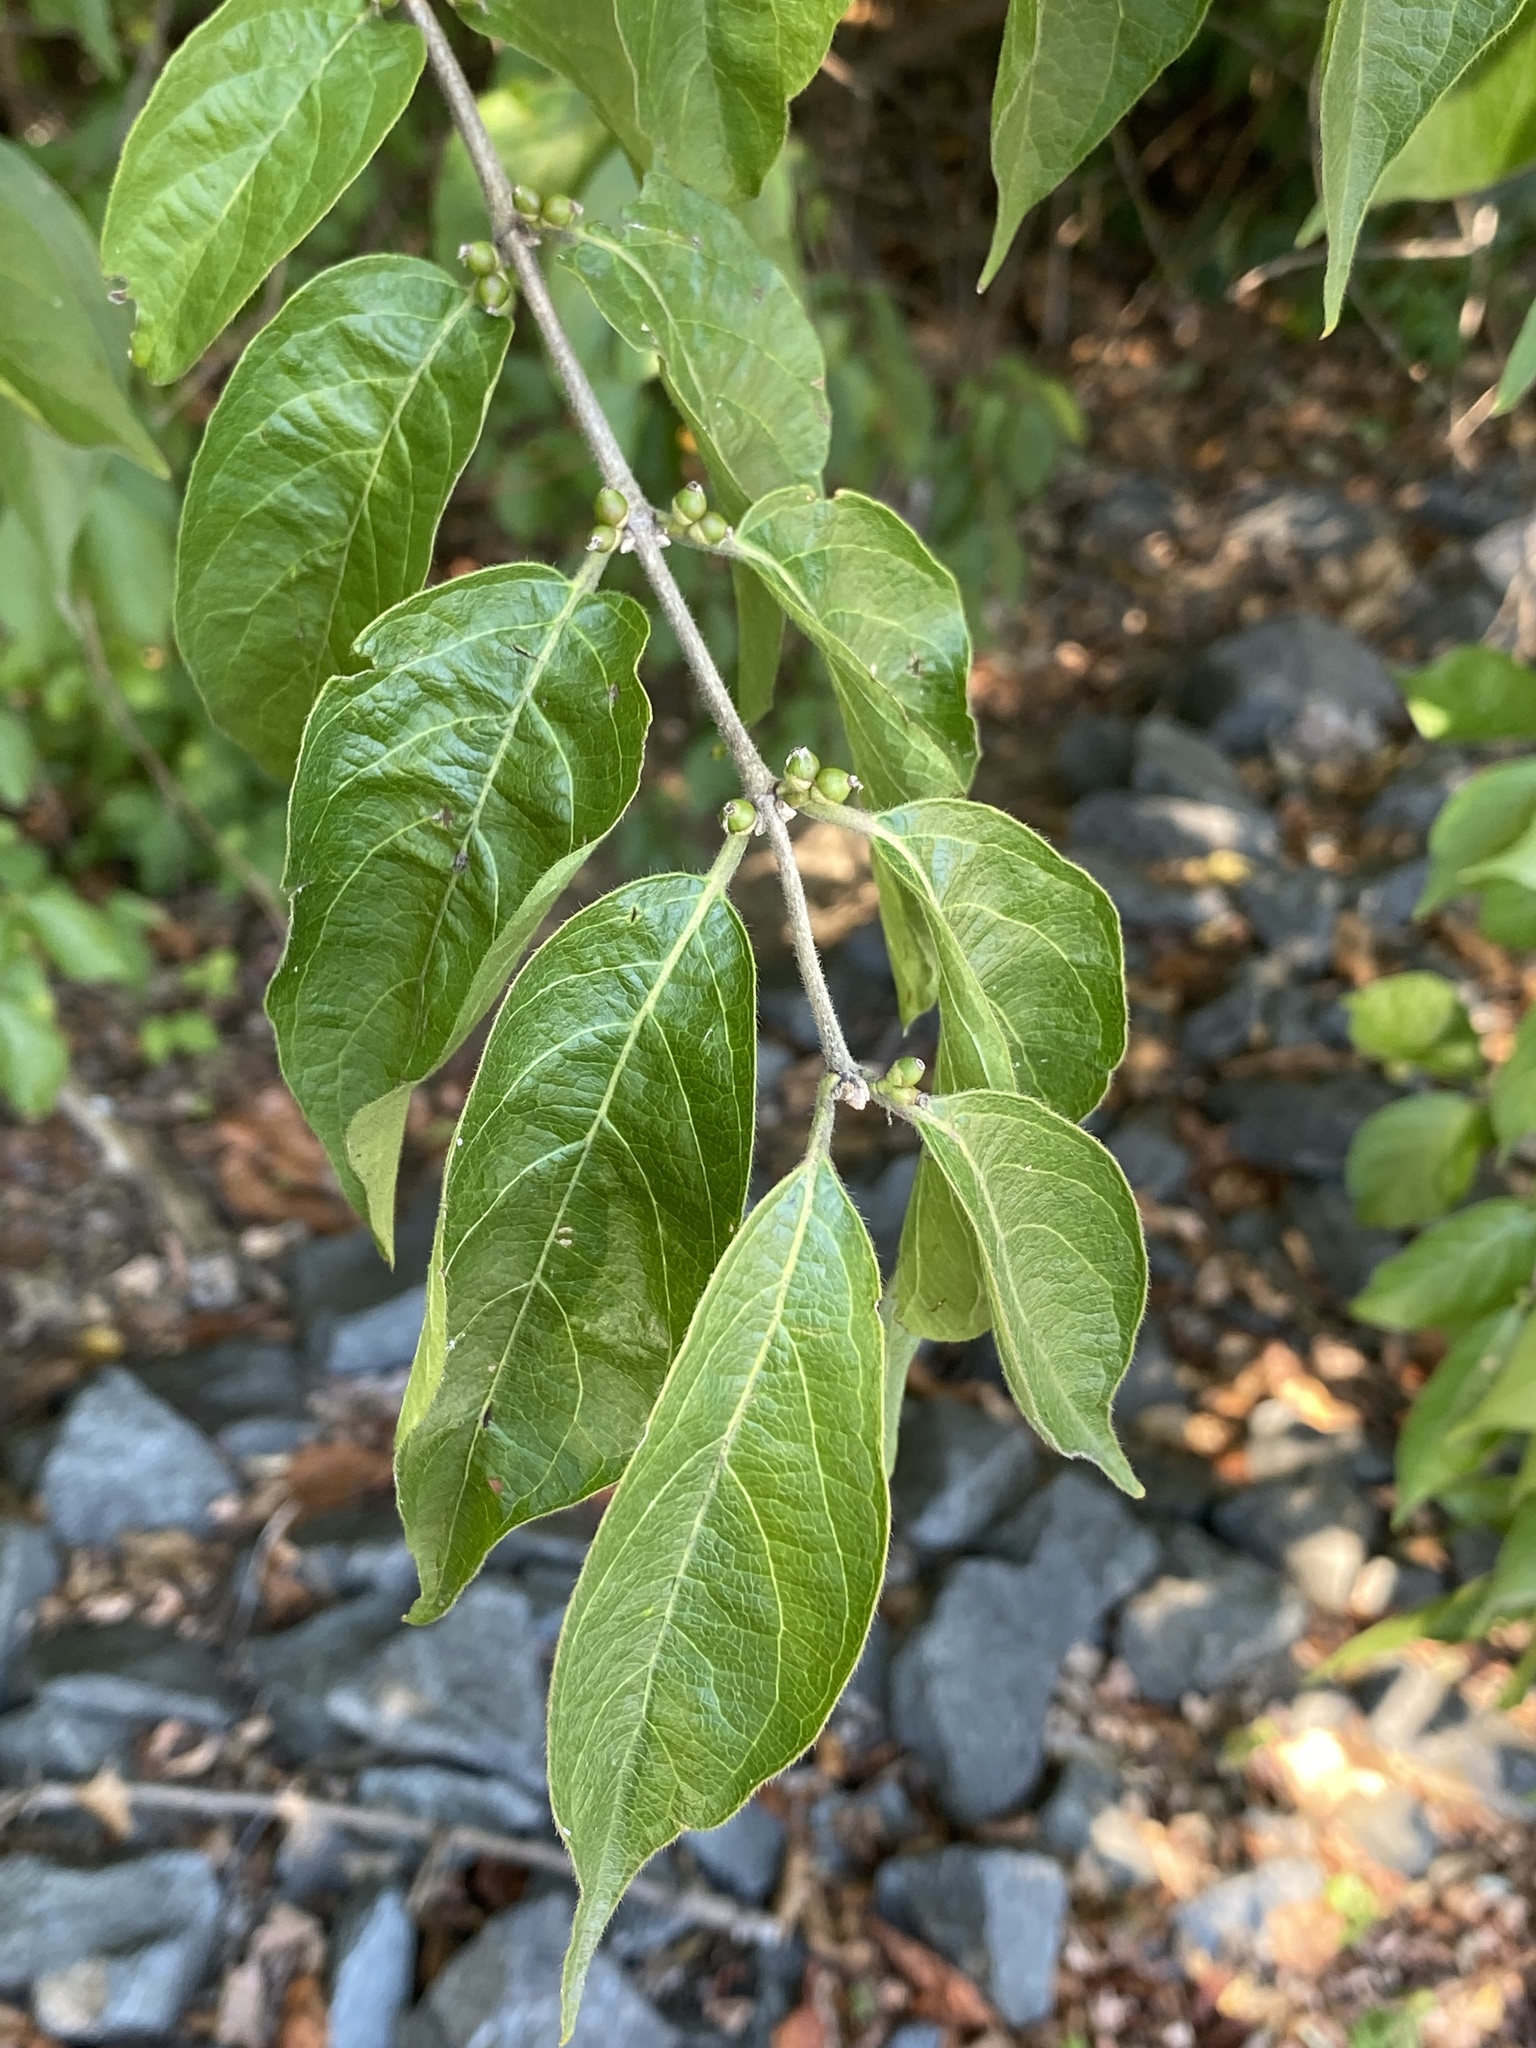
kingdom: Plantae
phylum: Tracheophyta
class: Magnoliopsida
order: Dipsacales
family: Caprifoliaceae
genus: Lonicera
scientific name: Lonicera maackii
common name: Amur honeysuckle
